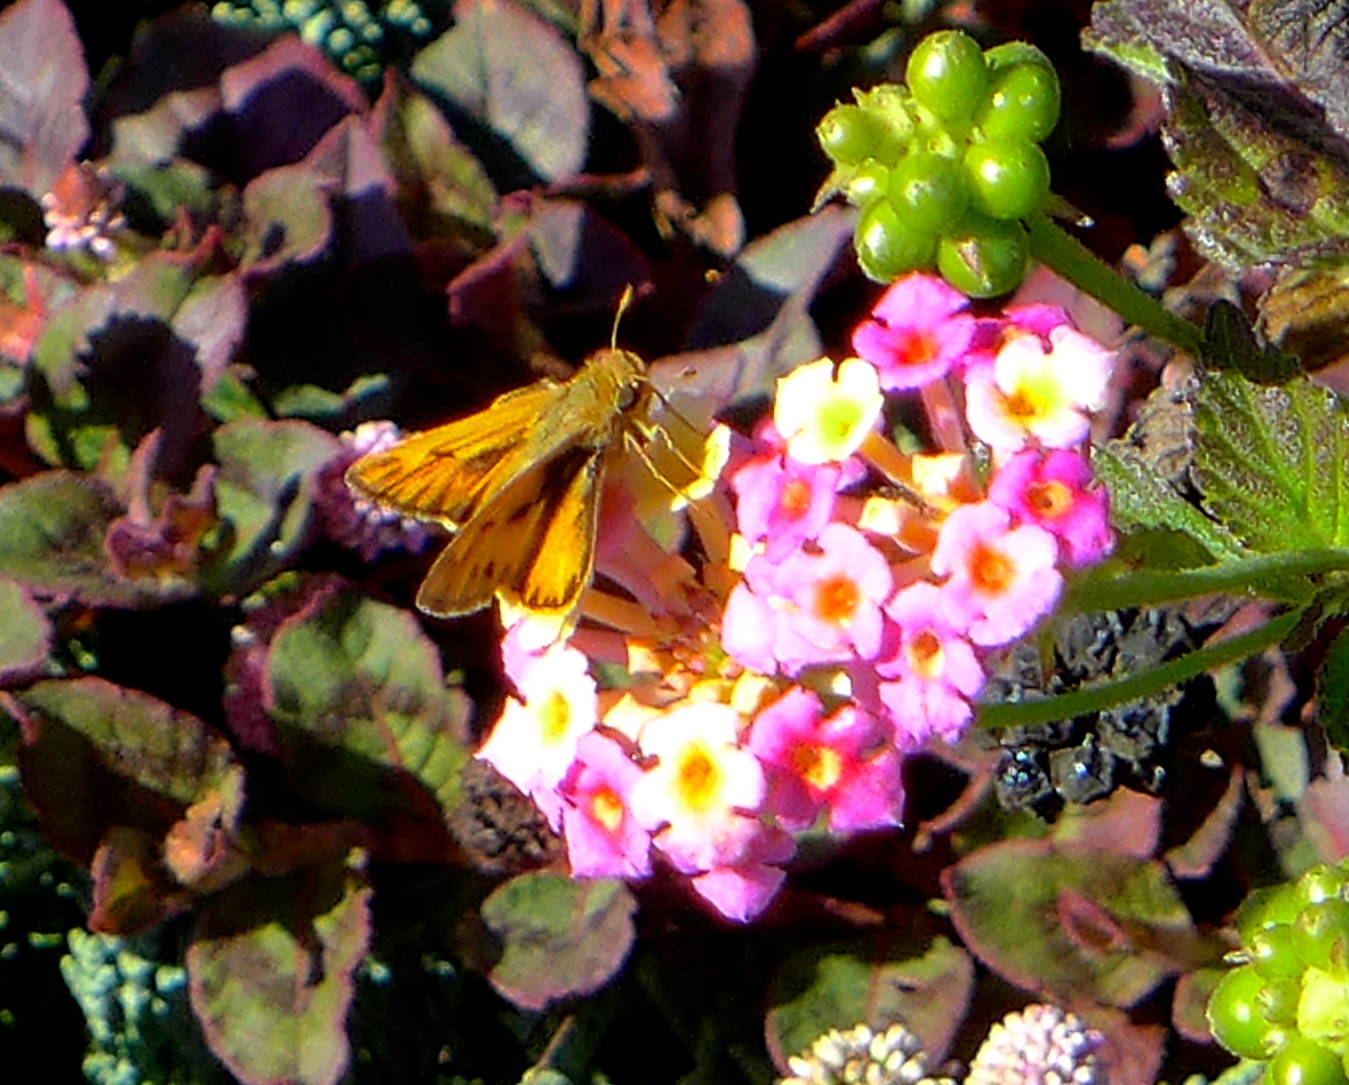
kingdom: Animalia
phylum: Arthropoda
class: Insecta
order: Lepidoptera
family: Hesperiidae
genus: Hylephila
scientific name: Hylephila phyleus
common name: Fiery skipper
